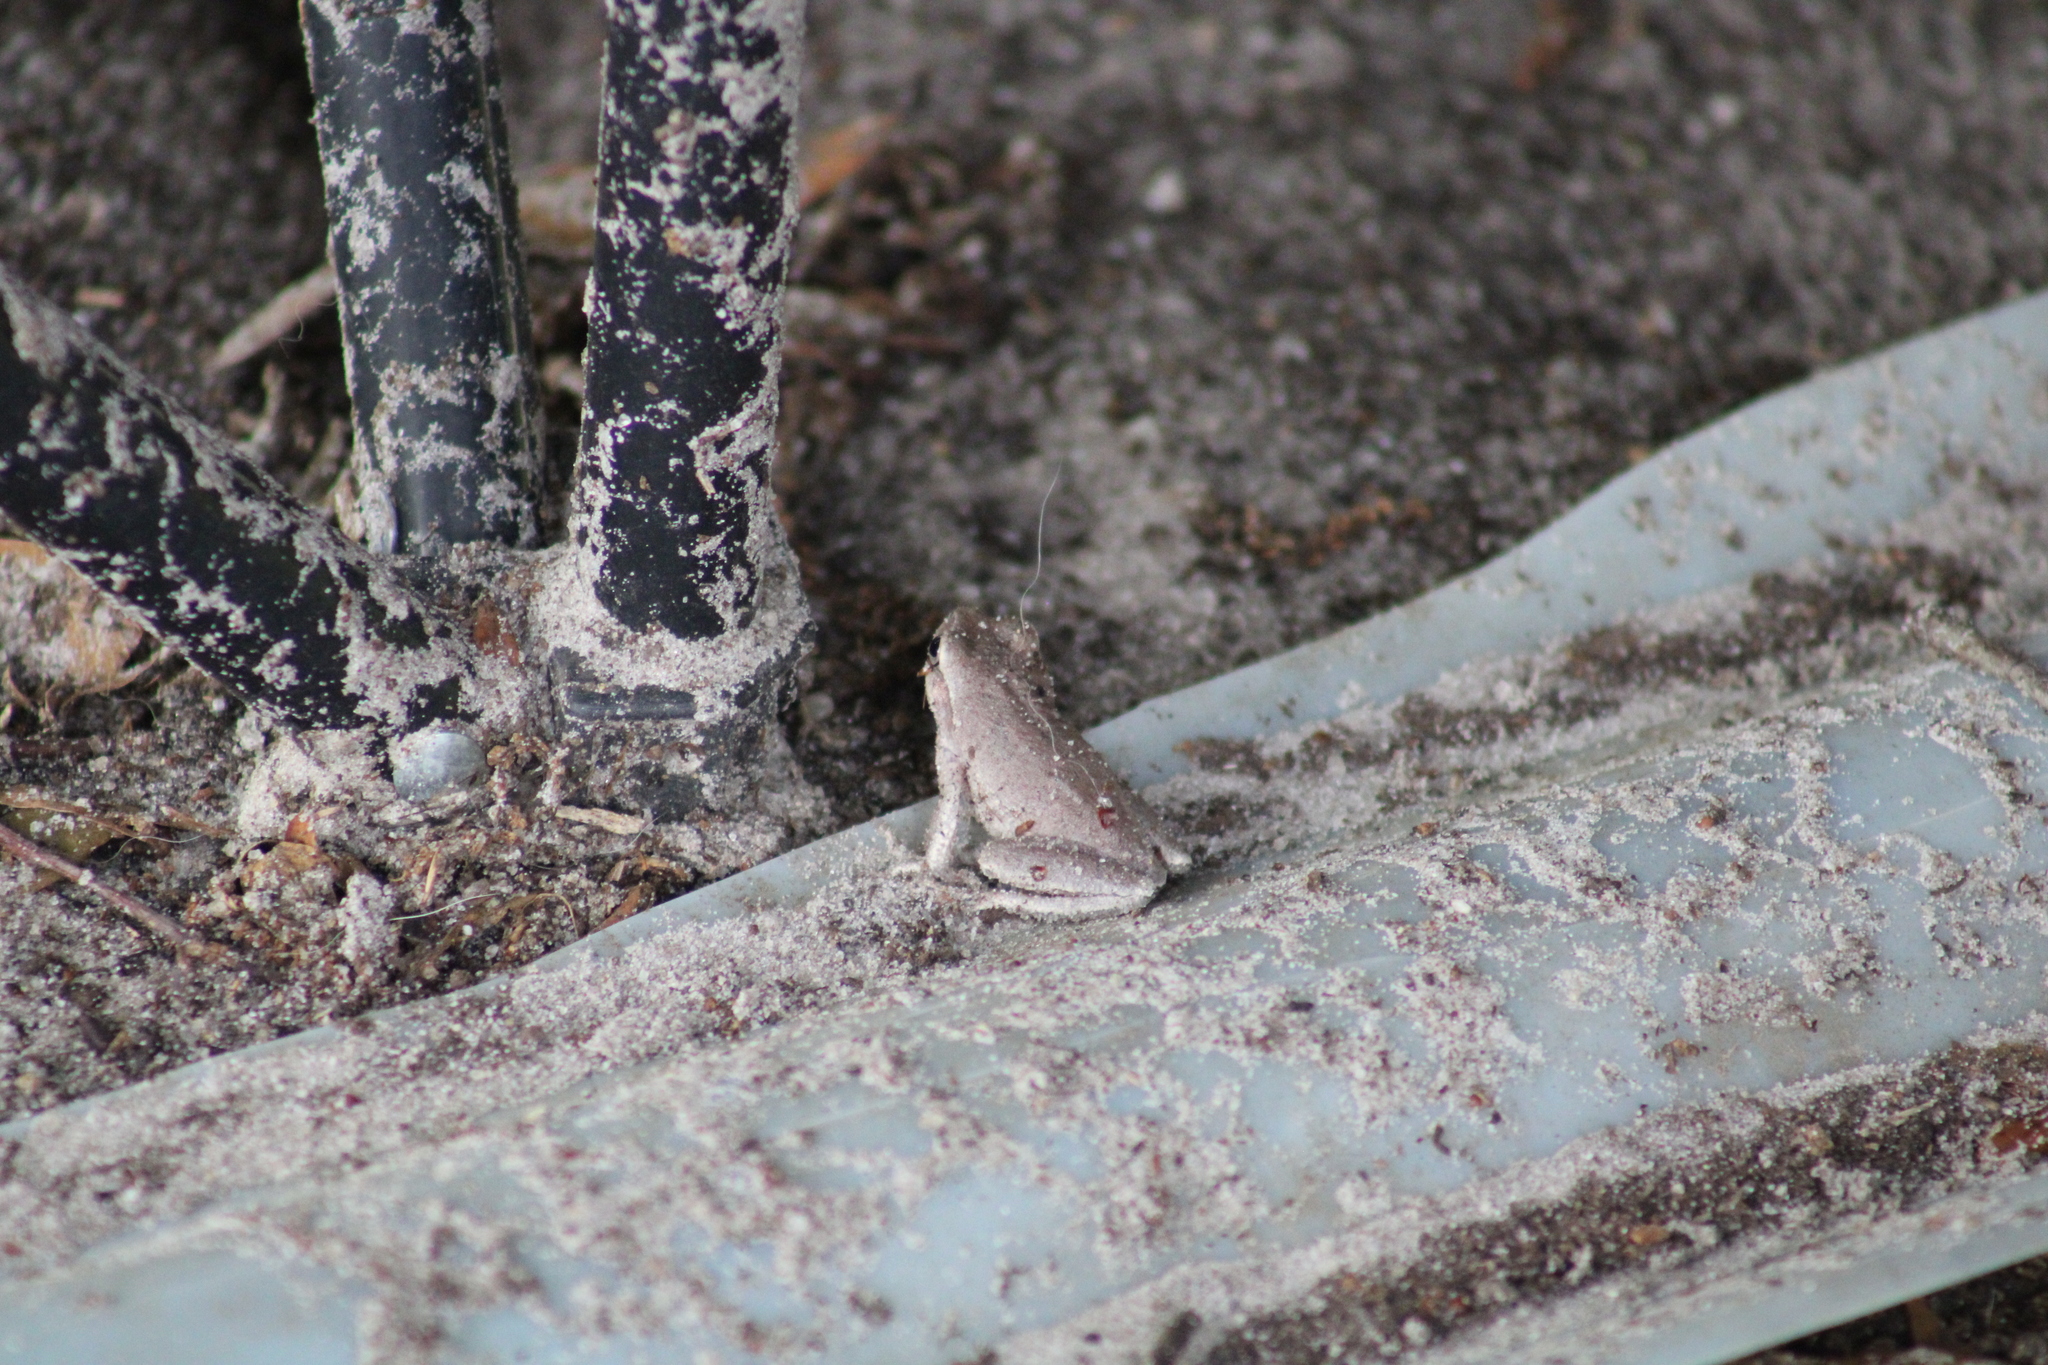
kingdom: Animalia
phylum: Chordata
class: Amphibia
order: Anura
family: Hylidae
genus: Hyla
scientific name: Hyla femoralis
